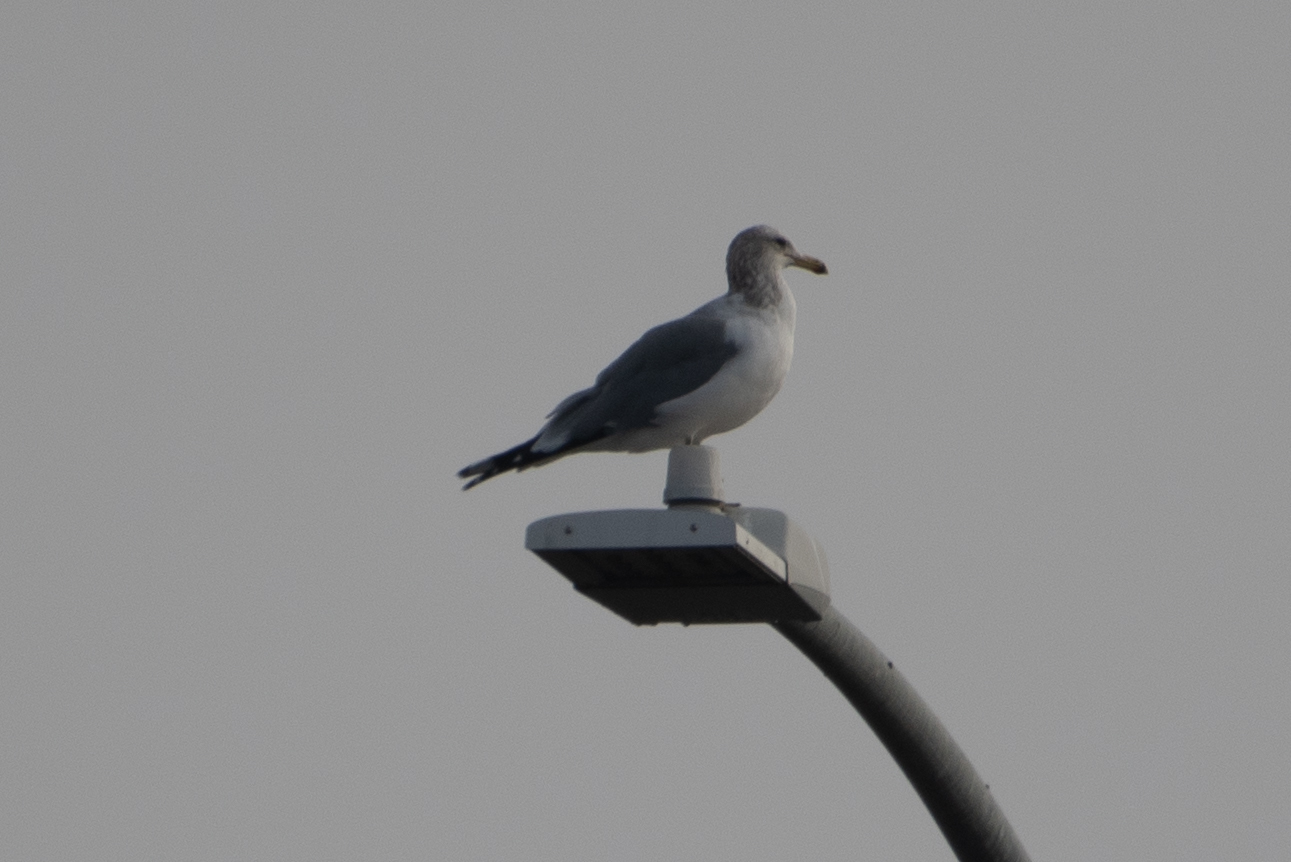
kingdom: Animalia
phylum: Chordata
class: Aves
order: Charadriiformes
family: Laridae
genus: Larus
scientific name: Larus californicus
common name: California gull
